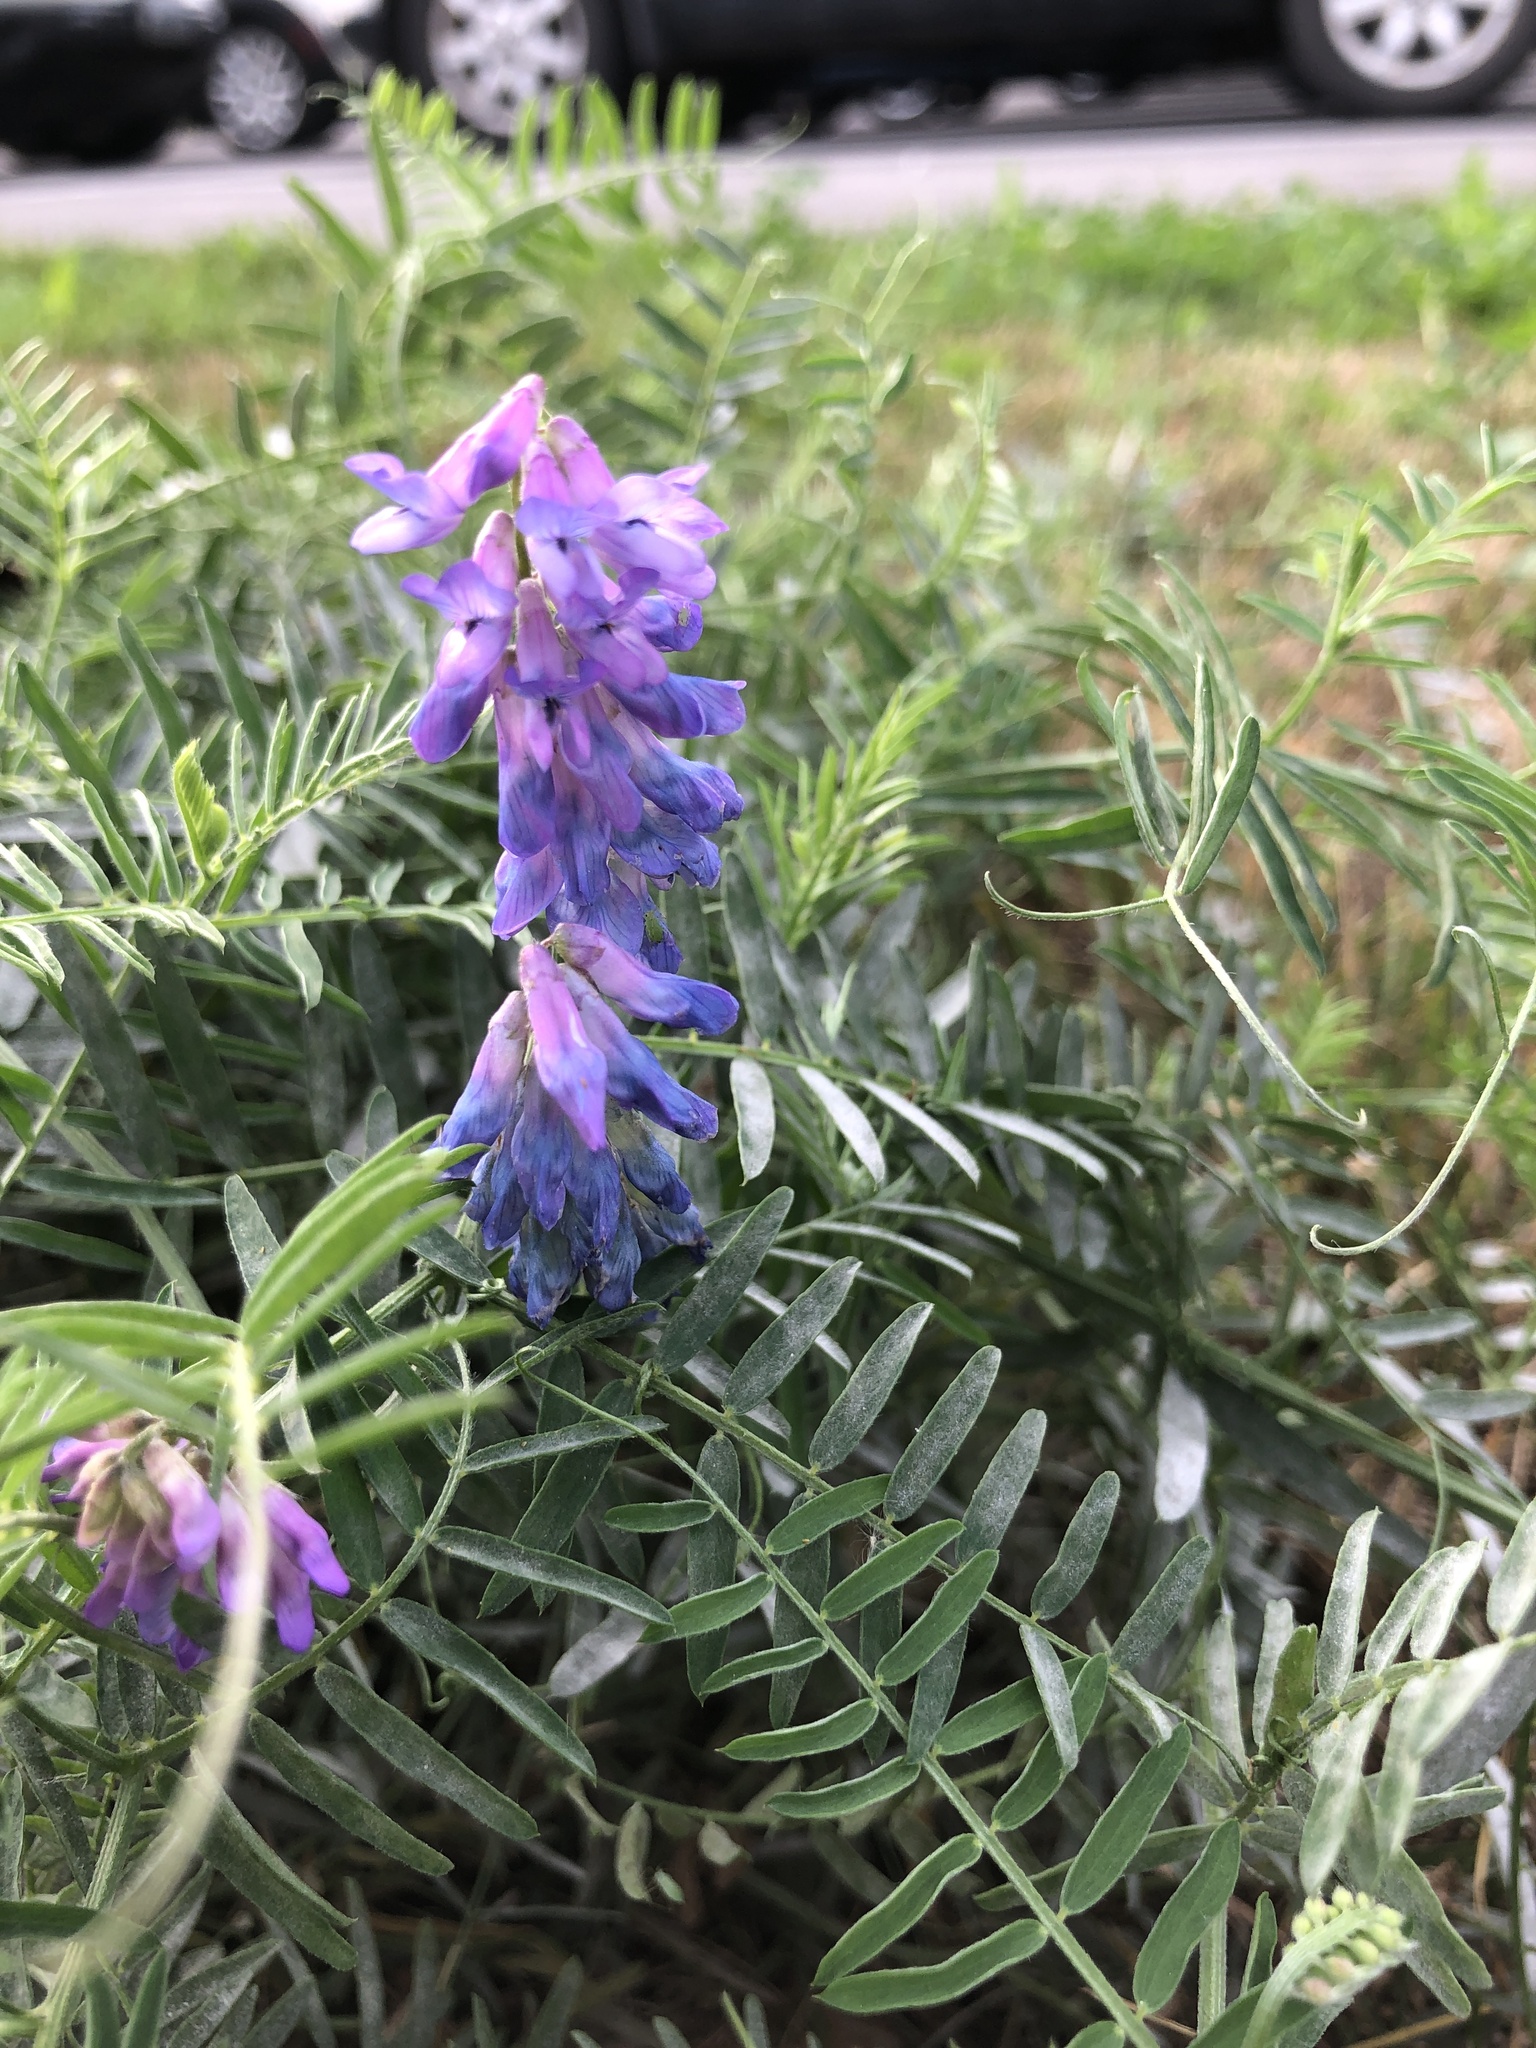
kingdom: Plantae
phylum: Tracheophyta
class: Magnoliopsida
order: Fabales
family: Fabaceae
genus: Vicia
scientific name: Vicia cracca
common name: Bird vetch
